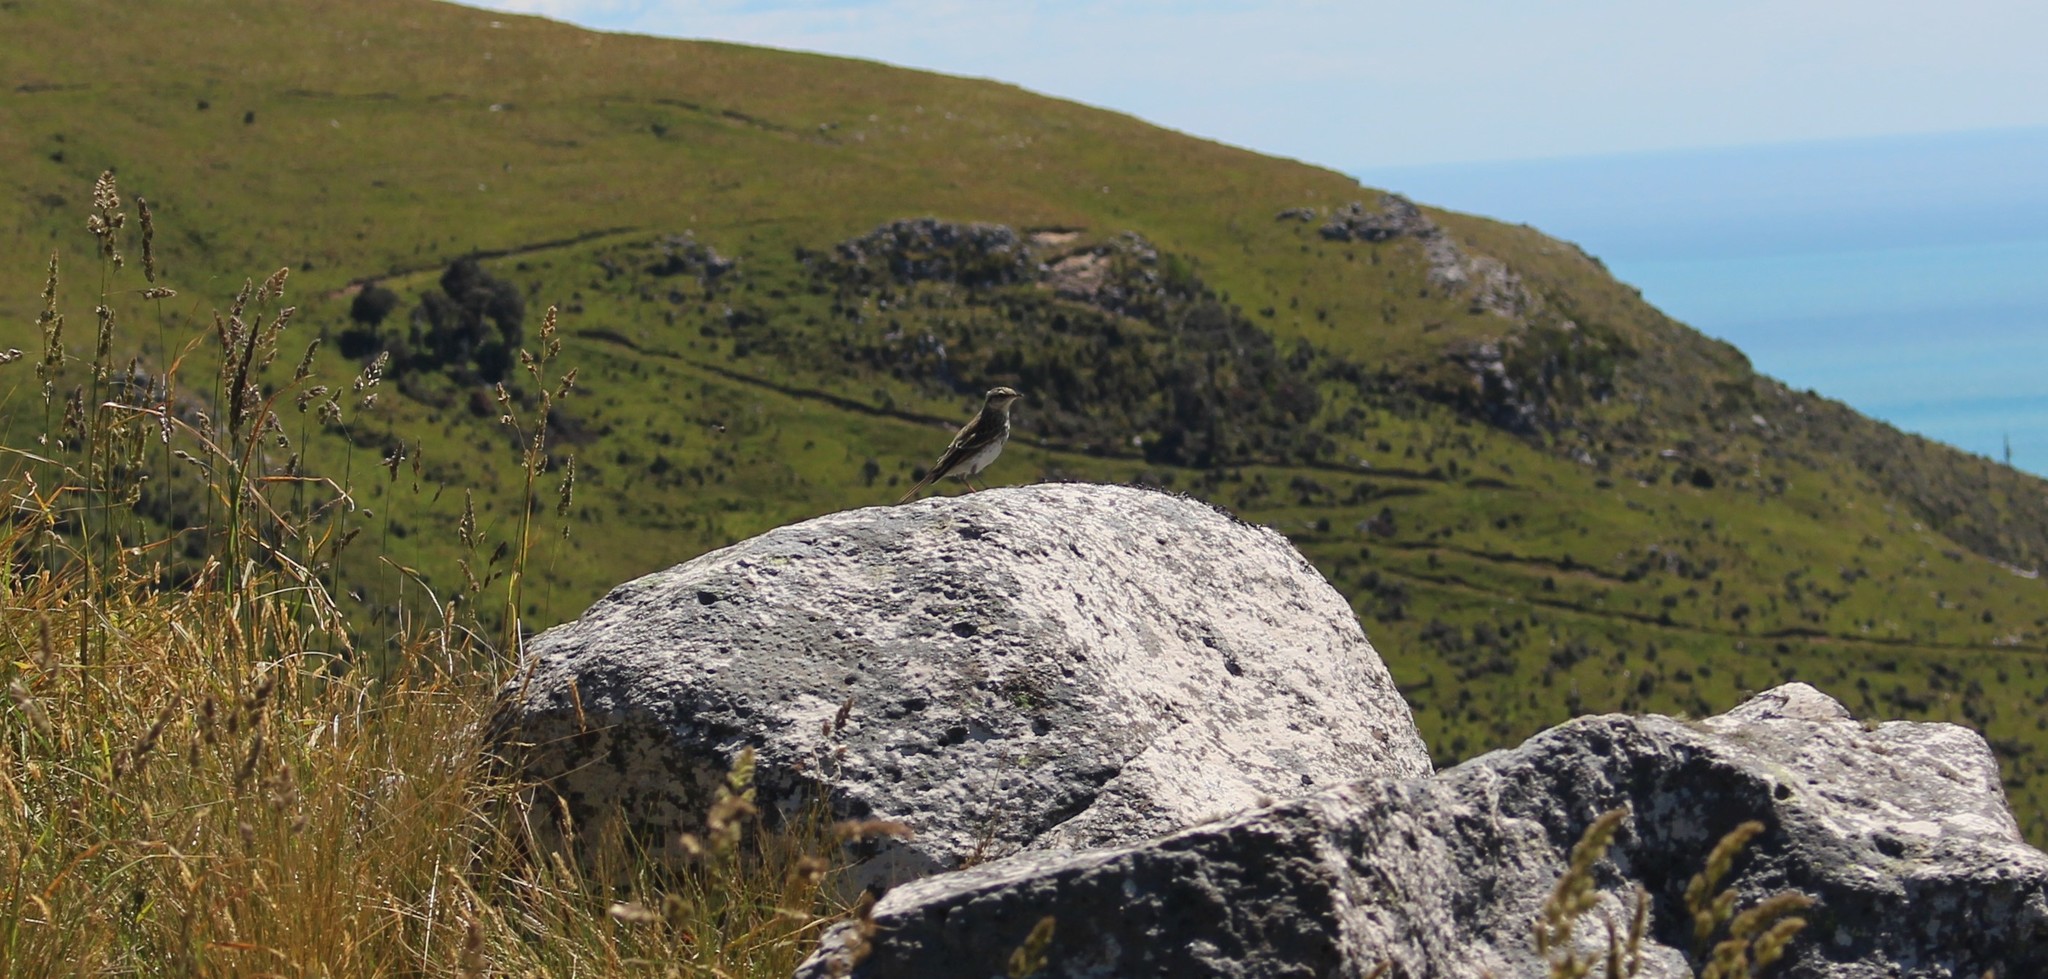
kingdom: Animalia
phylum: Chordata
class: Aves
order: Passeriformes
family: Motacillidae
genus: Anthus
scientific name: Anthus novaeseelandiae
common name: New zealand pipit
